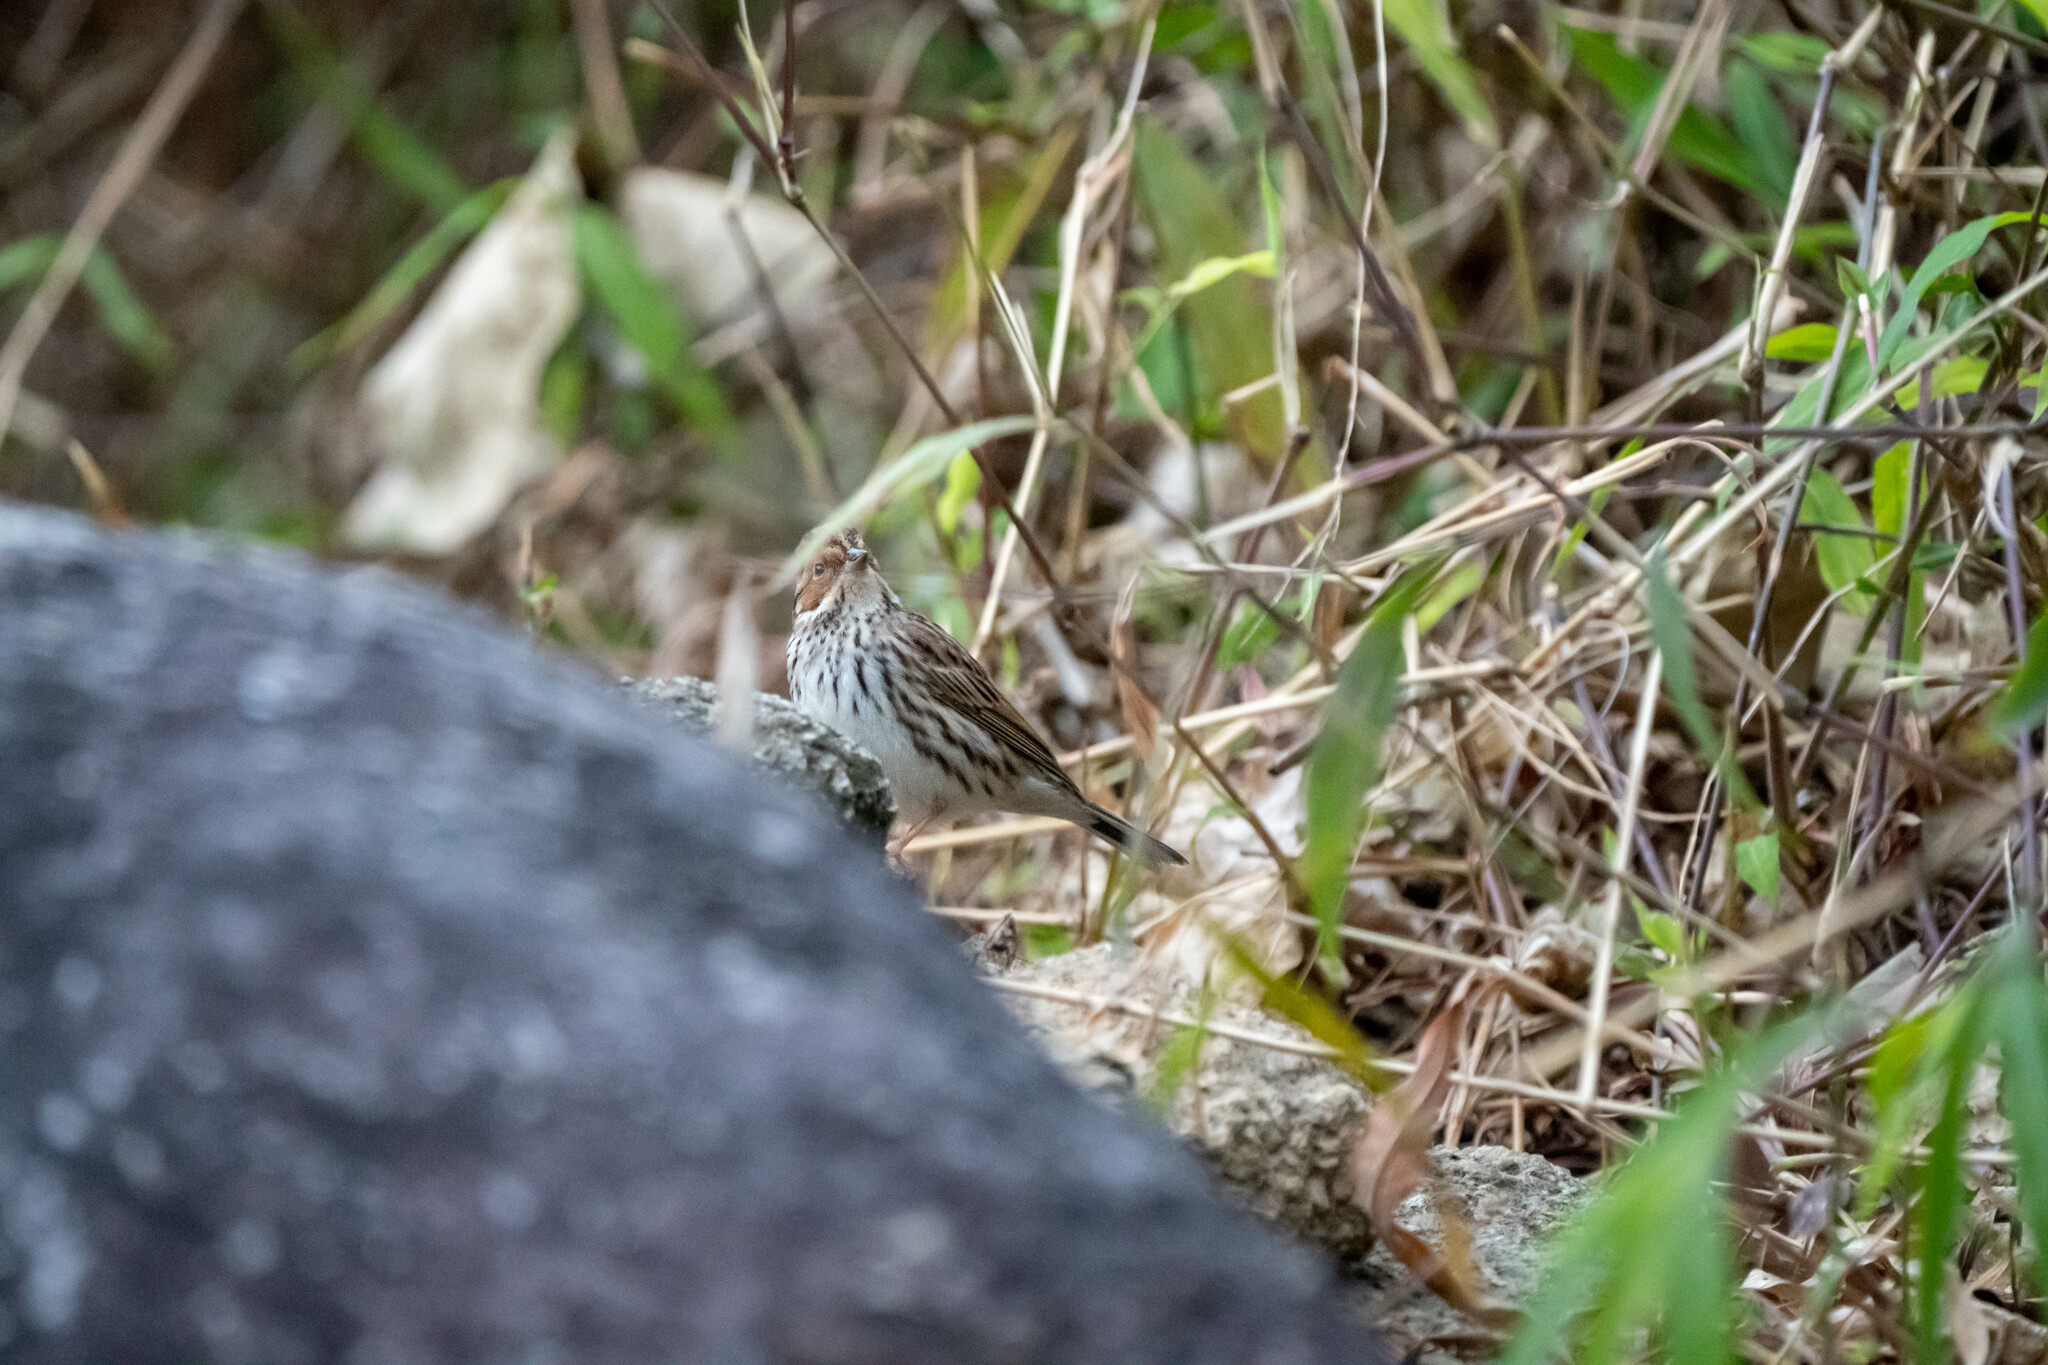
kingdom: Animalia
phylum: Chordata
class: Aves
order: Passeriformes
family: Emberizidae
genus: Emberiza
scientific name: Emberiza pusilla
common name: Little bunting
